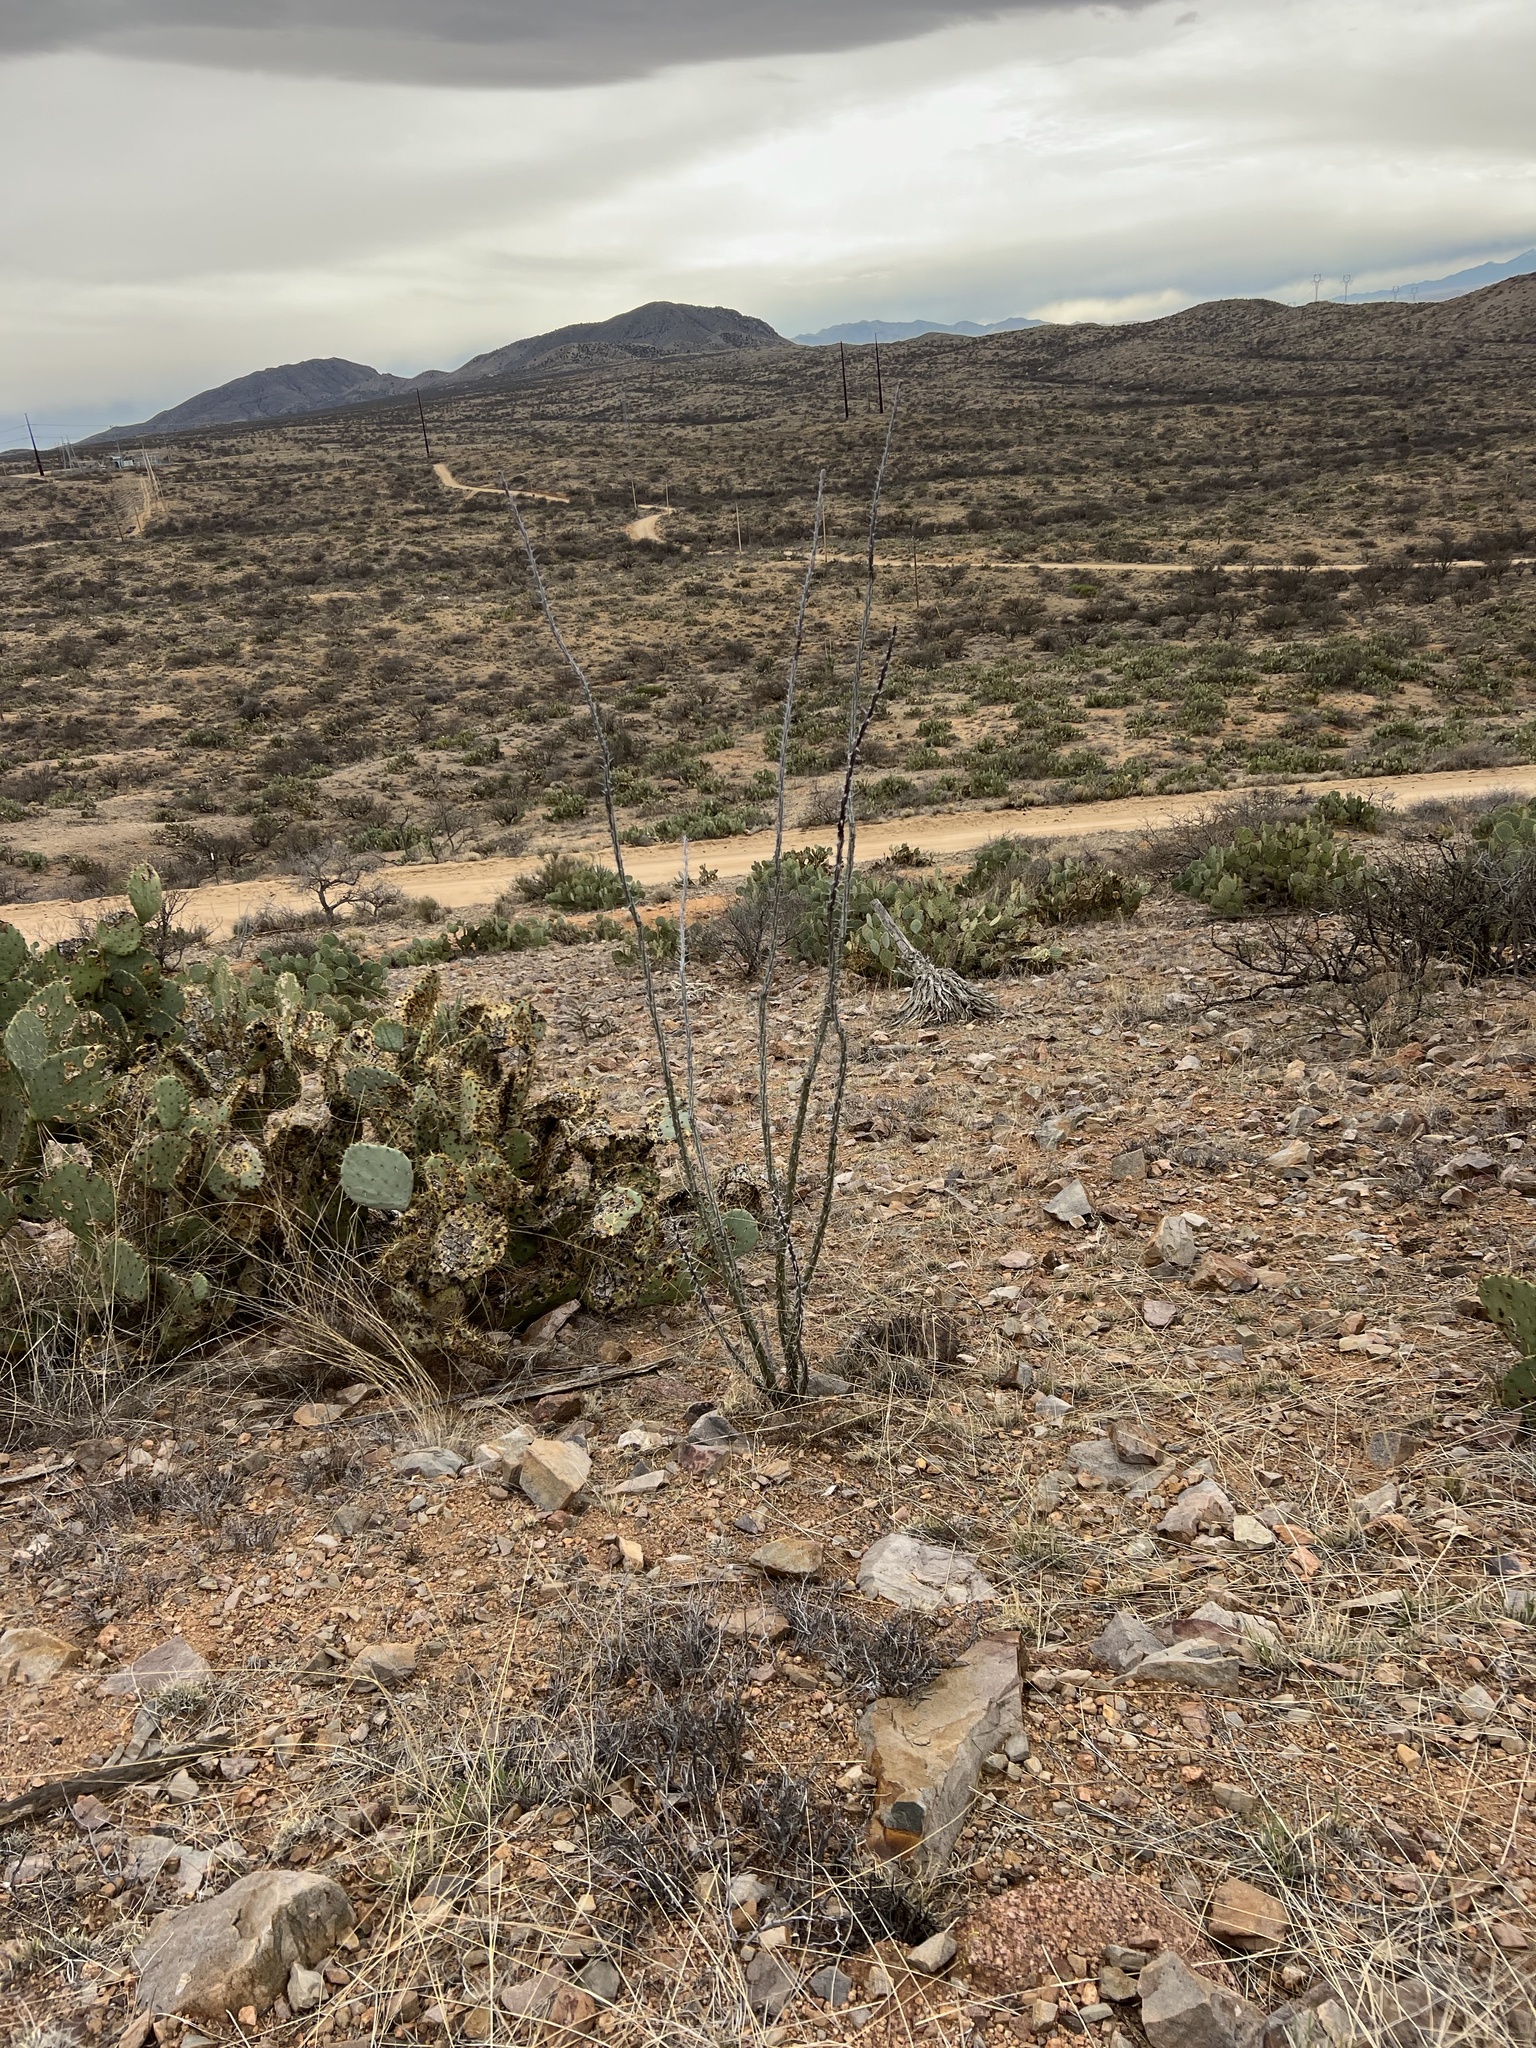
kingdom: Plantae
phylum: Tracheophyta
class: Magnoliopsida
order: Ericales
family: Fouquieriaceae
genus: Fouquieria
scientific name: Fouquieria splendens
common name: Vine-cactus
